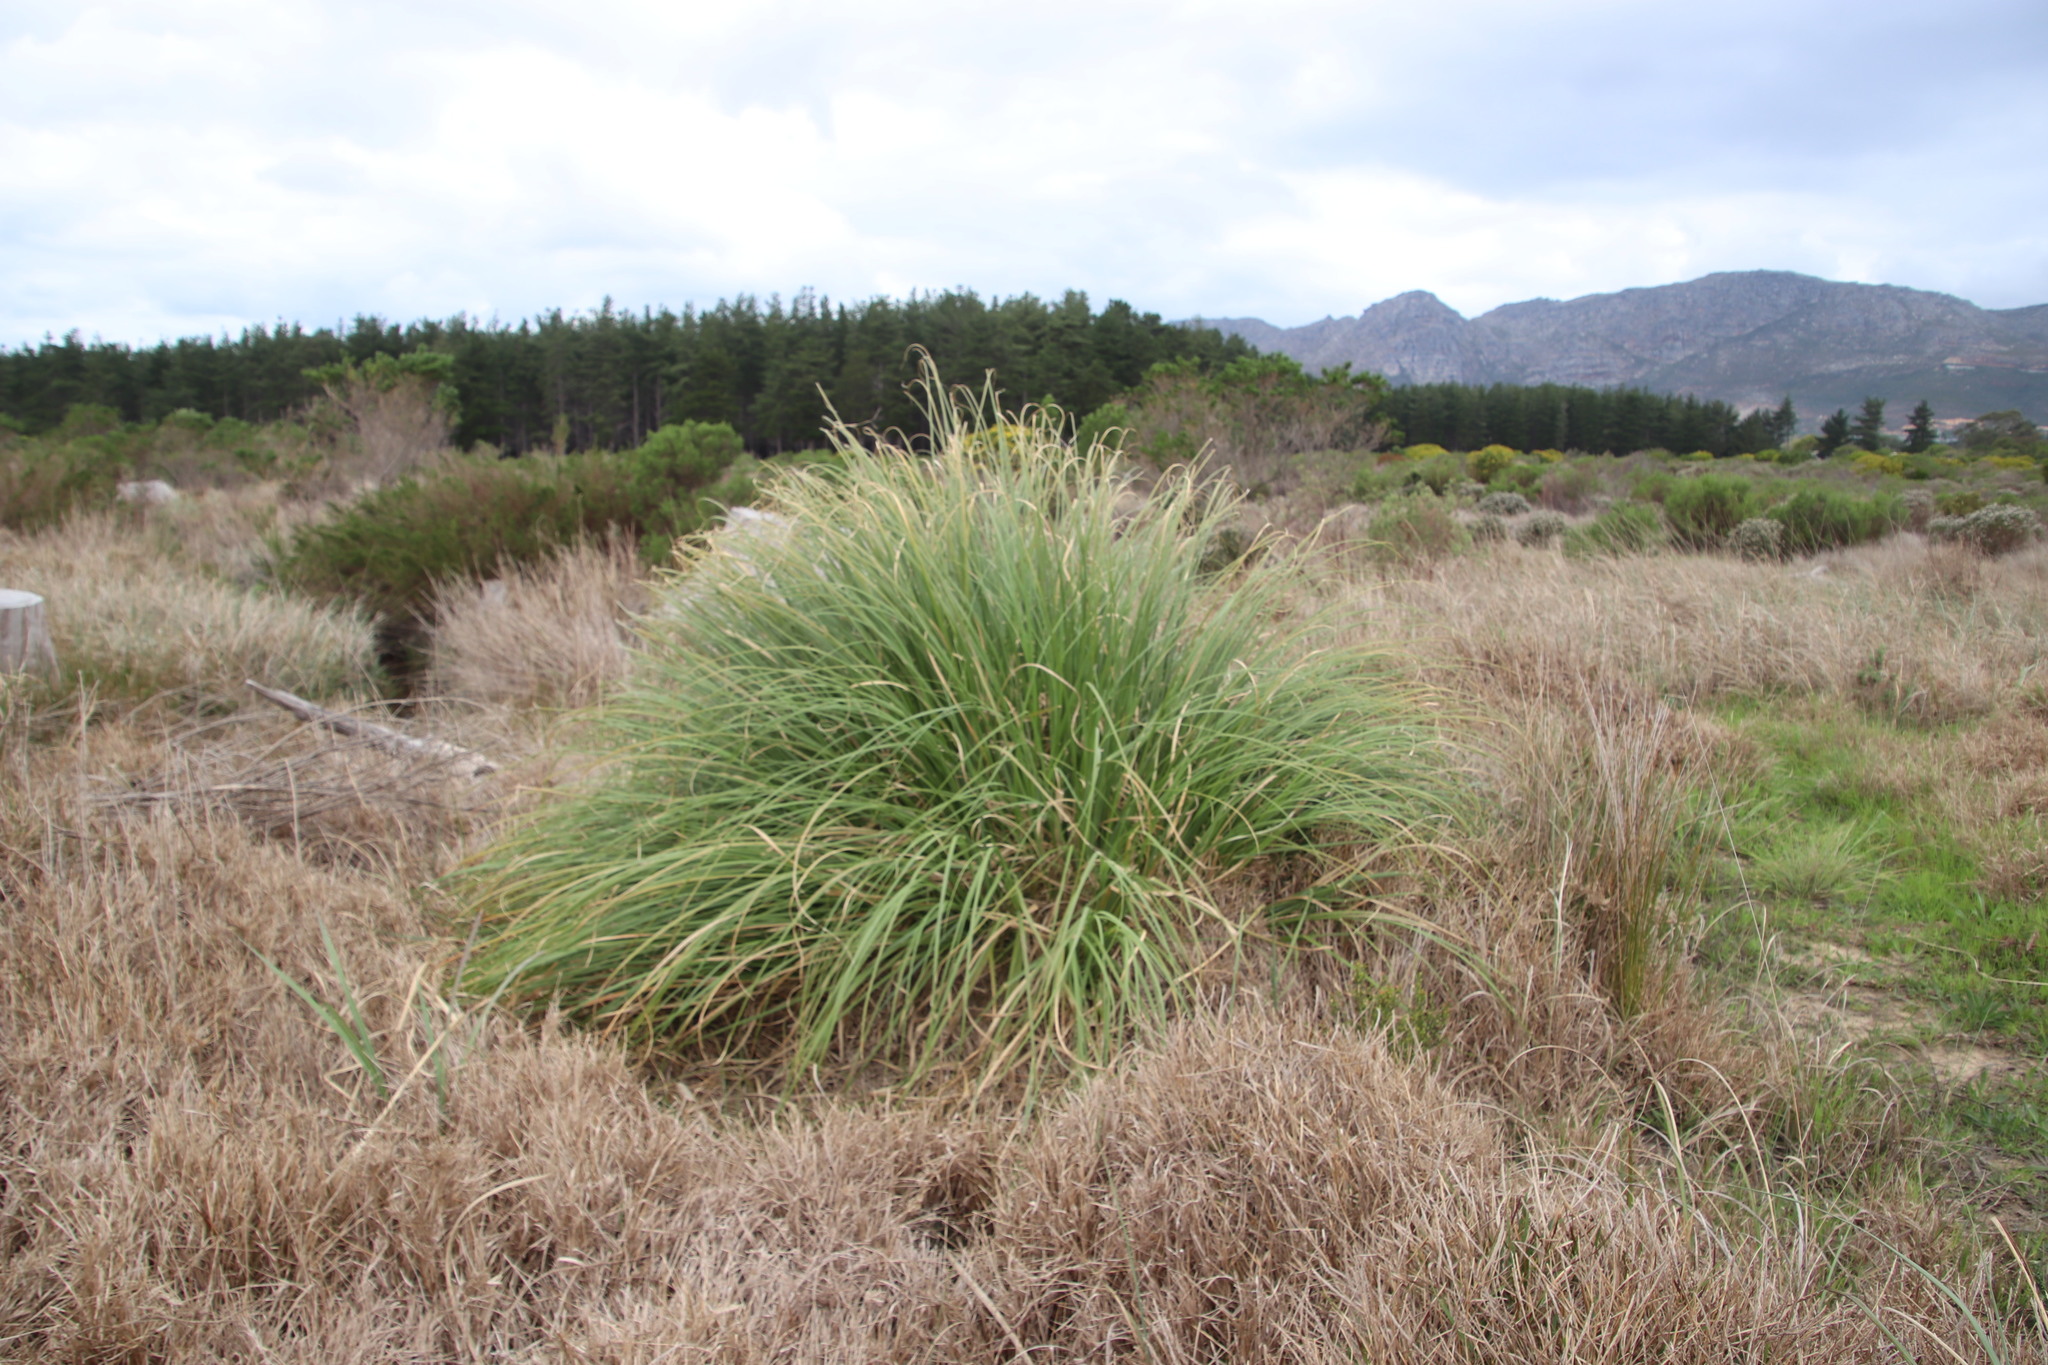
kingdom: Plantae
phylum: Tracheophyta
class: Liliopsida
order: Poales
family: Poaceae
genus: Cortaderia
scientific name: Cortaderia selloana
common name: Uruguayan pampas grass
